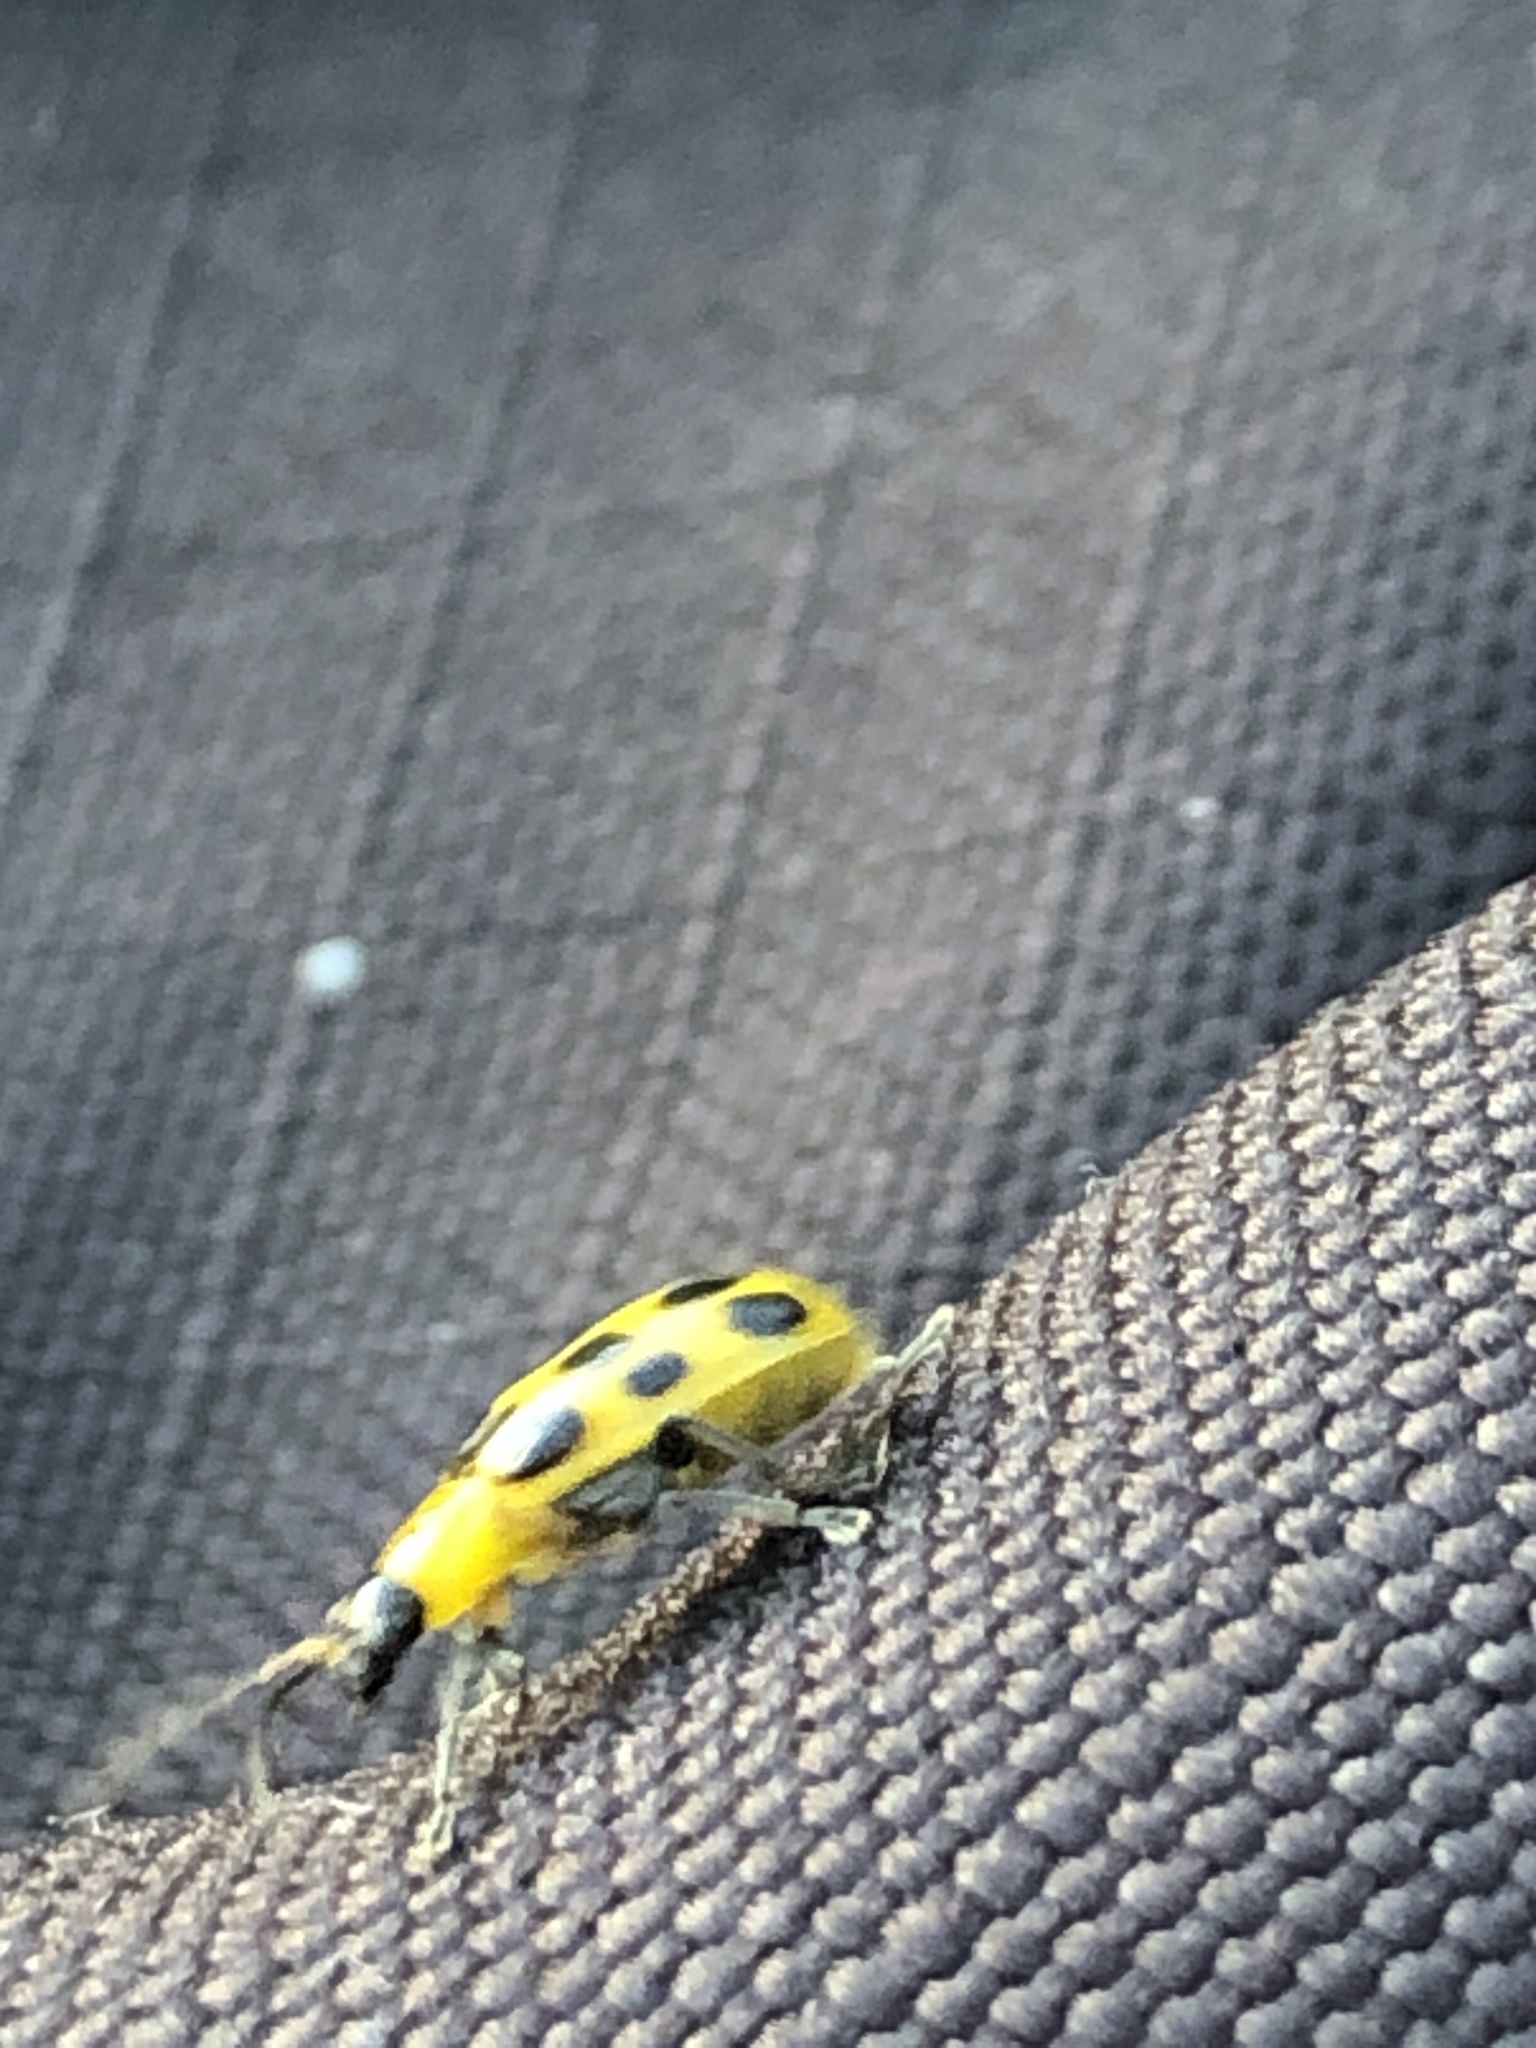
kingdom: Animalia
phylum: Arthropoda
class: Insecta
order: Coleoptera
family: Chrysomelidae
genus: Diabrotica
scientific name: Diabrotica undecimpunctata
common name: Spotted cucumber beetle
